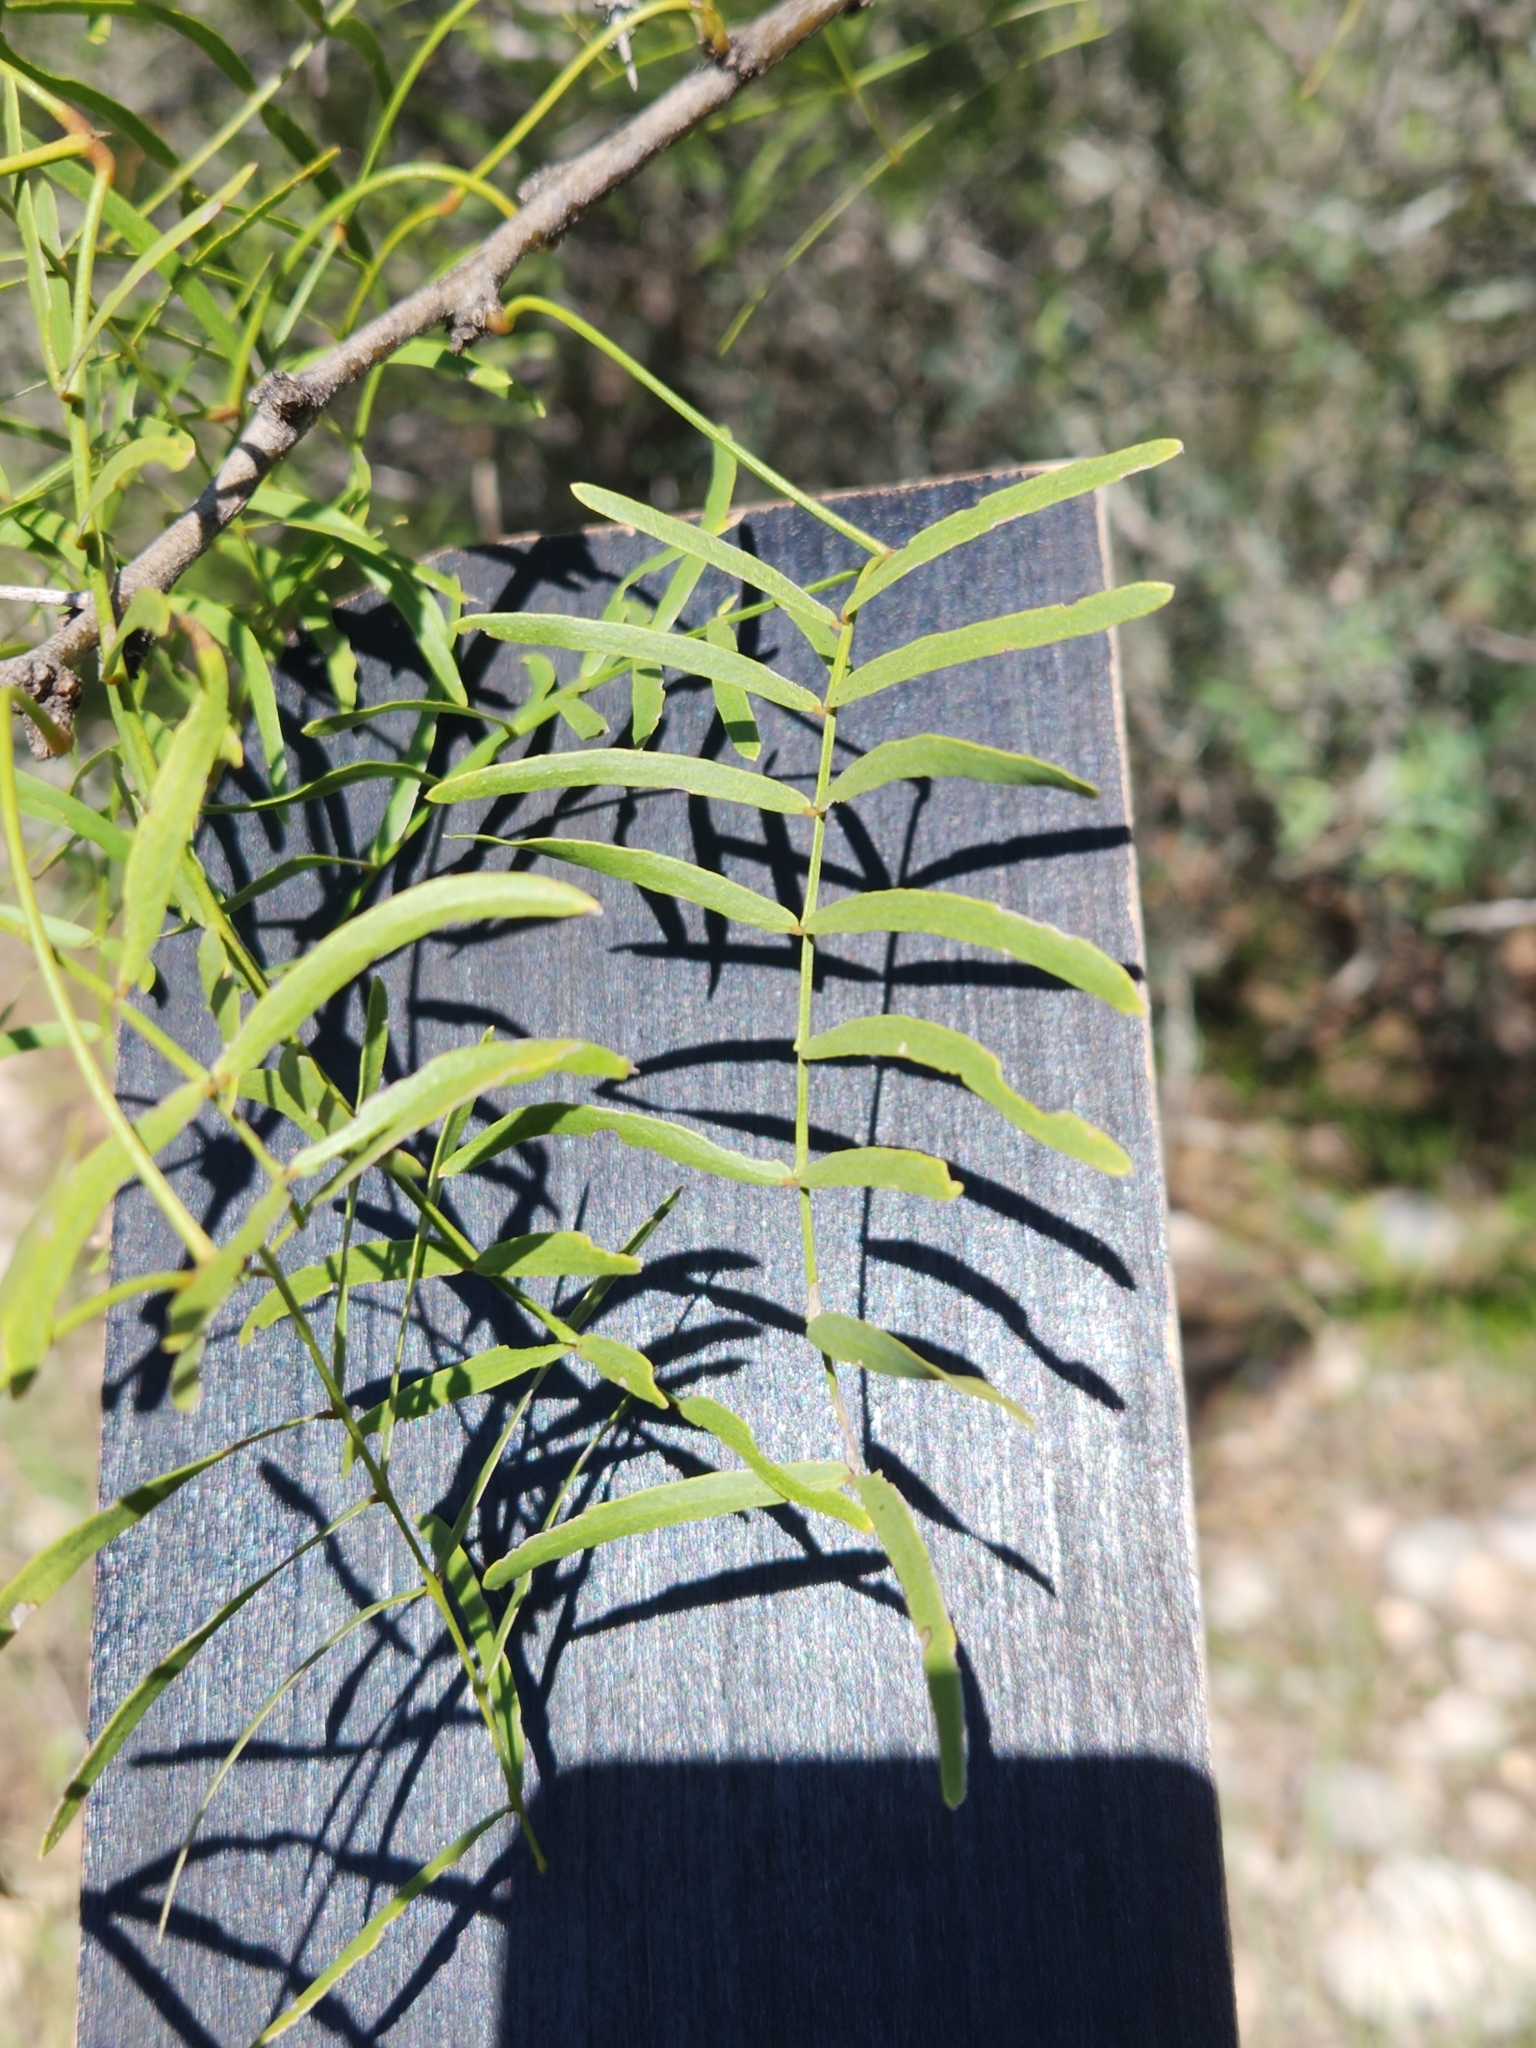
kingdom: Plantae
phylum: Tracheophyta
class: Magnoliopsida
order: Fabales
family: Fabaceae
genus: Prosopis
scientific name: Prosopis glandulosa
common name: Honey mesquite
